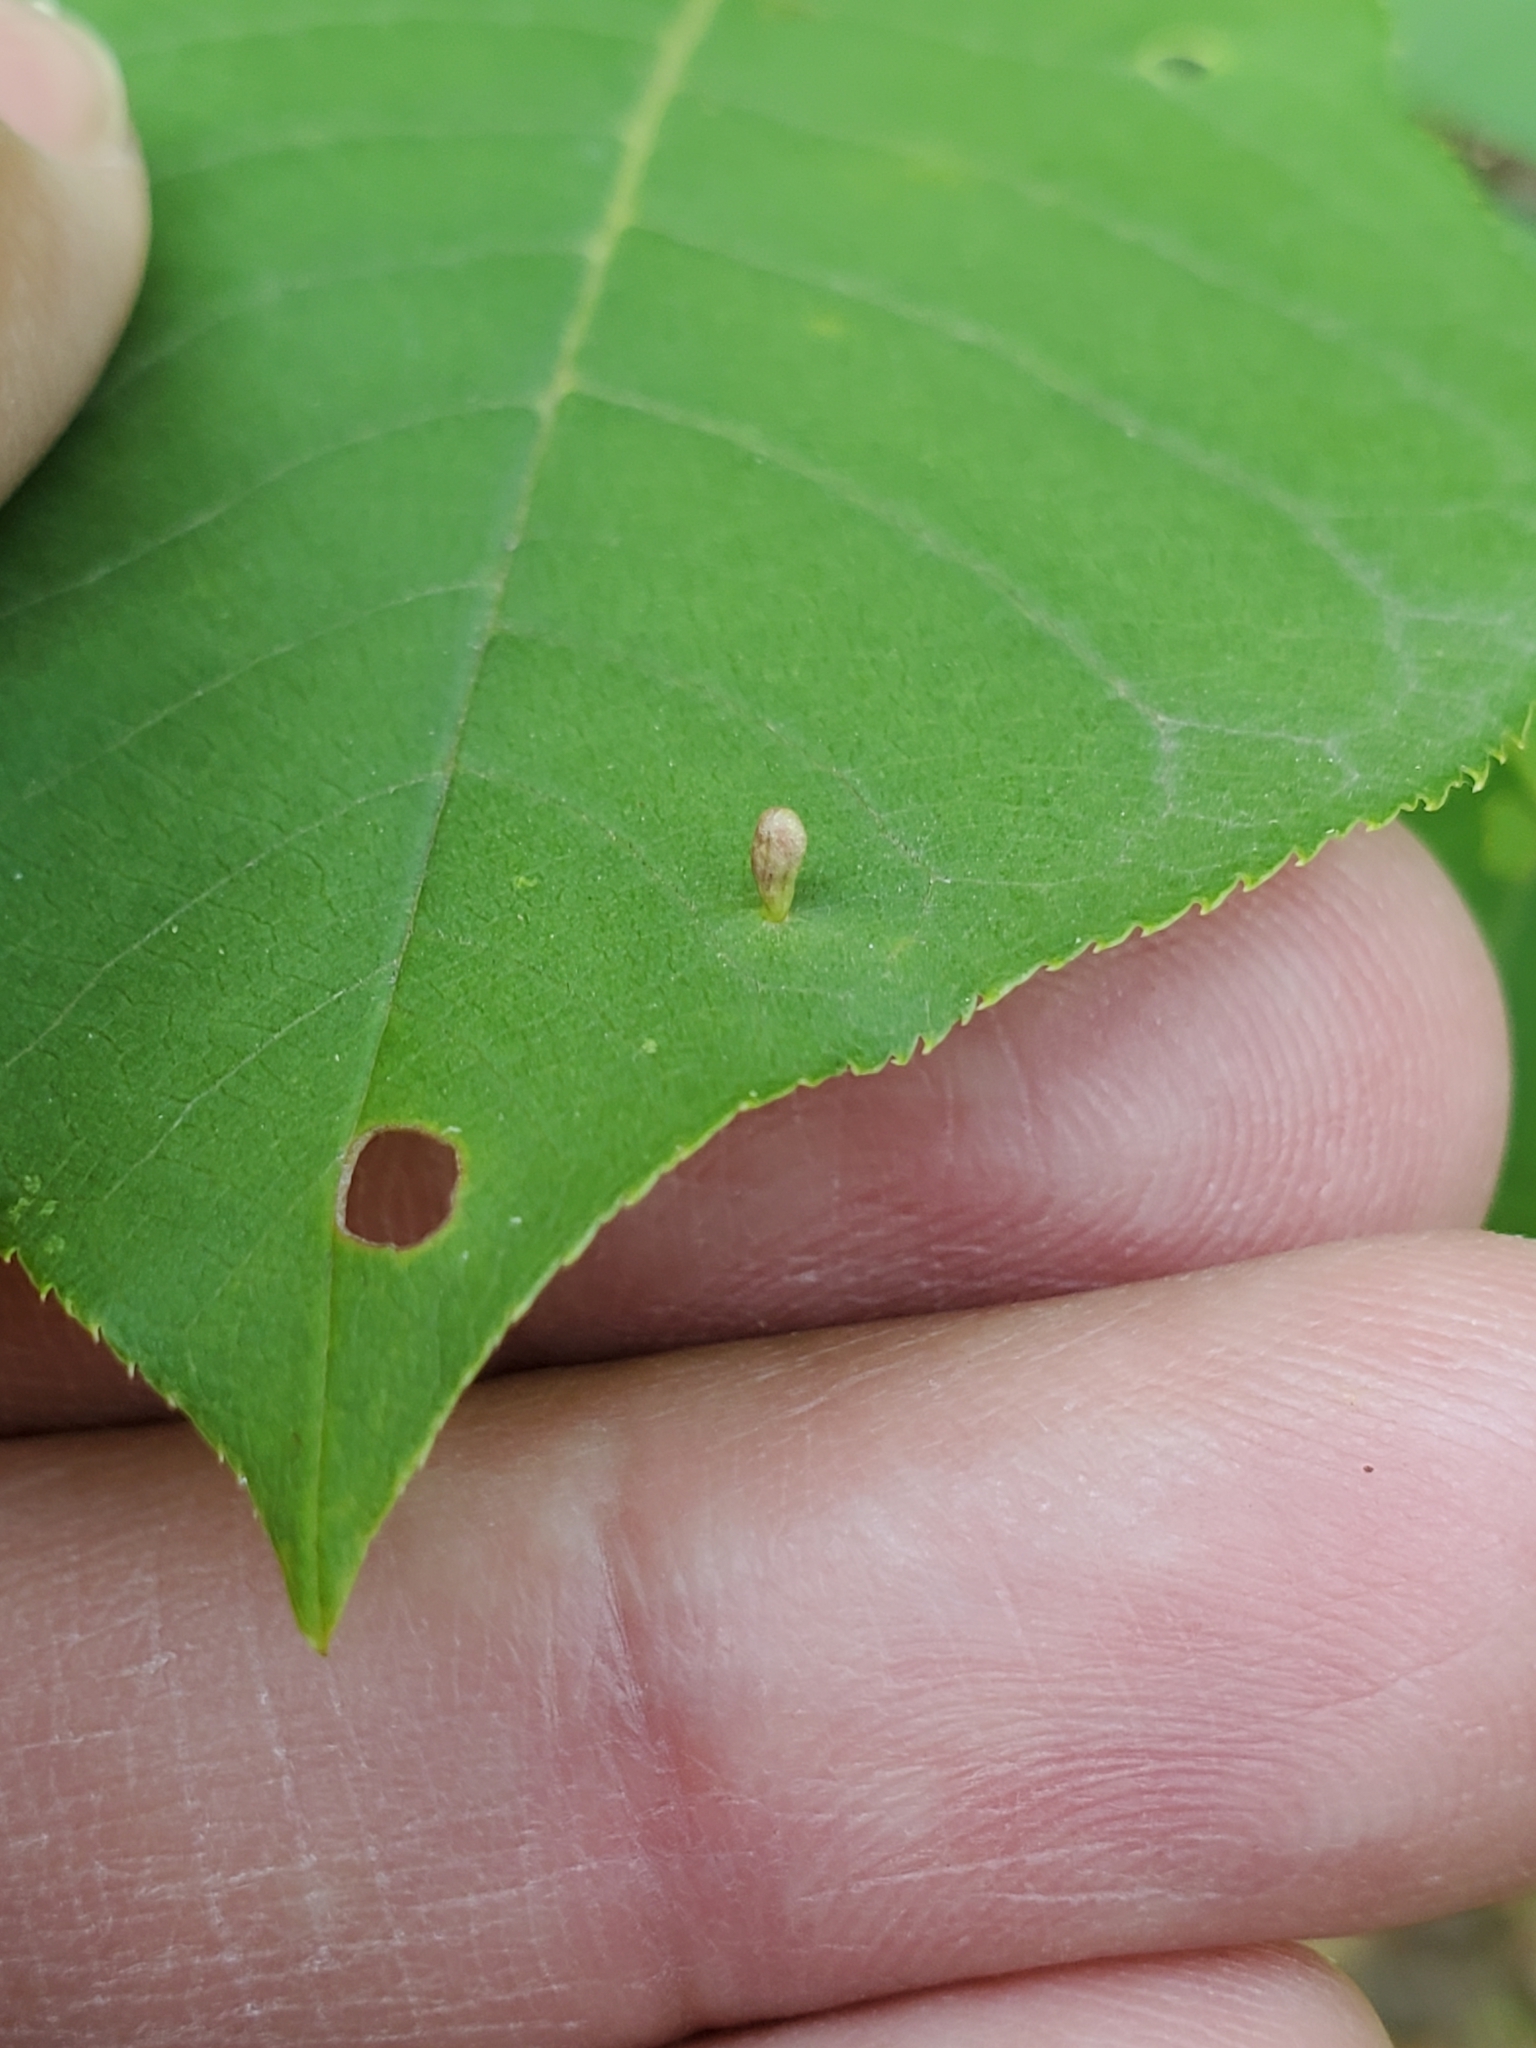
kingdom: Animalia
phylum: Arthropoda
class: Arachnida
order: Trombidiformes
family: Eriophyidae
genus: Eriophyes
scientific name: Eriophyes emarginatae
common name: Plum leaf gall mite
